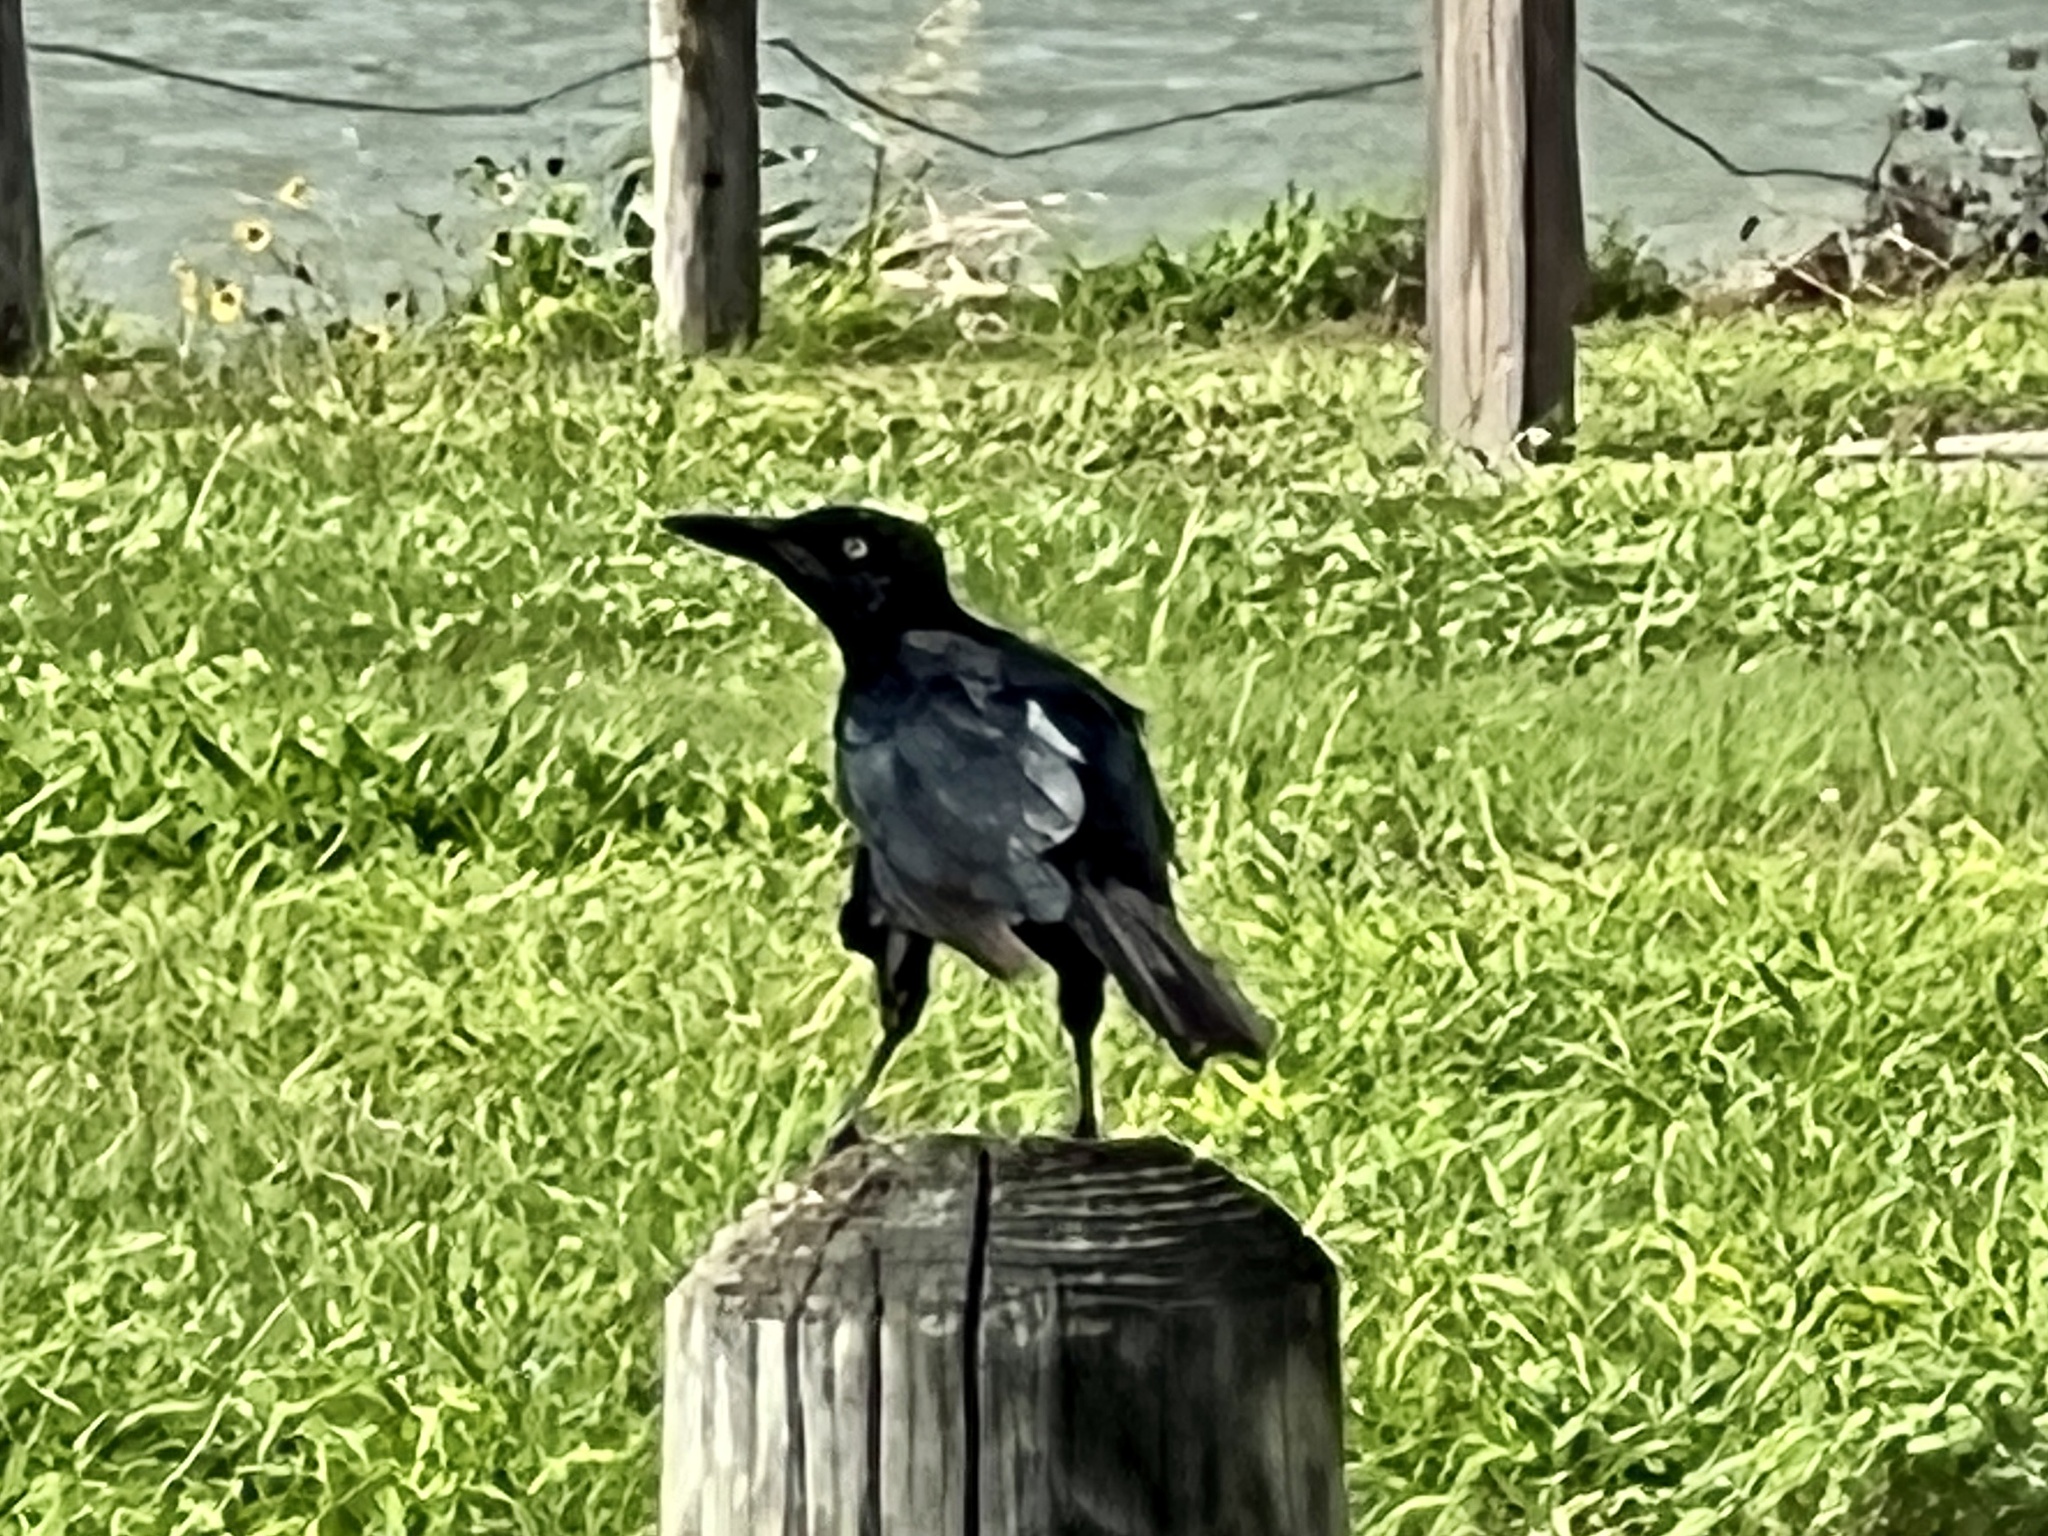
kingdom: Animalia
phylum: Chordata
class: Aves
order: Passeriformes
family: Icteridae
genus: Quiscalus
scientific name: Quiscalus mexicanus
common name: Great-tailed grackle
